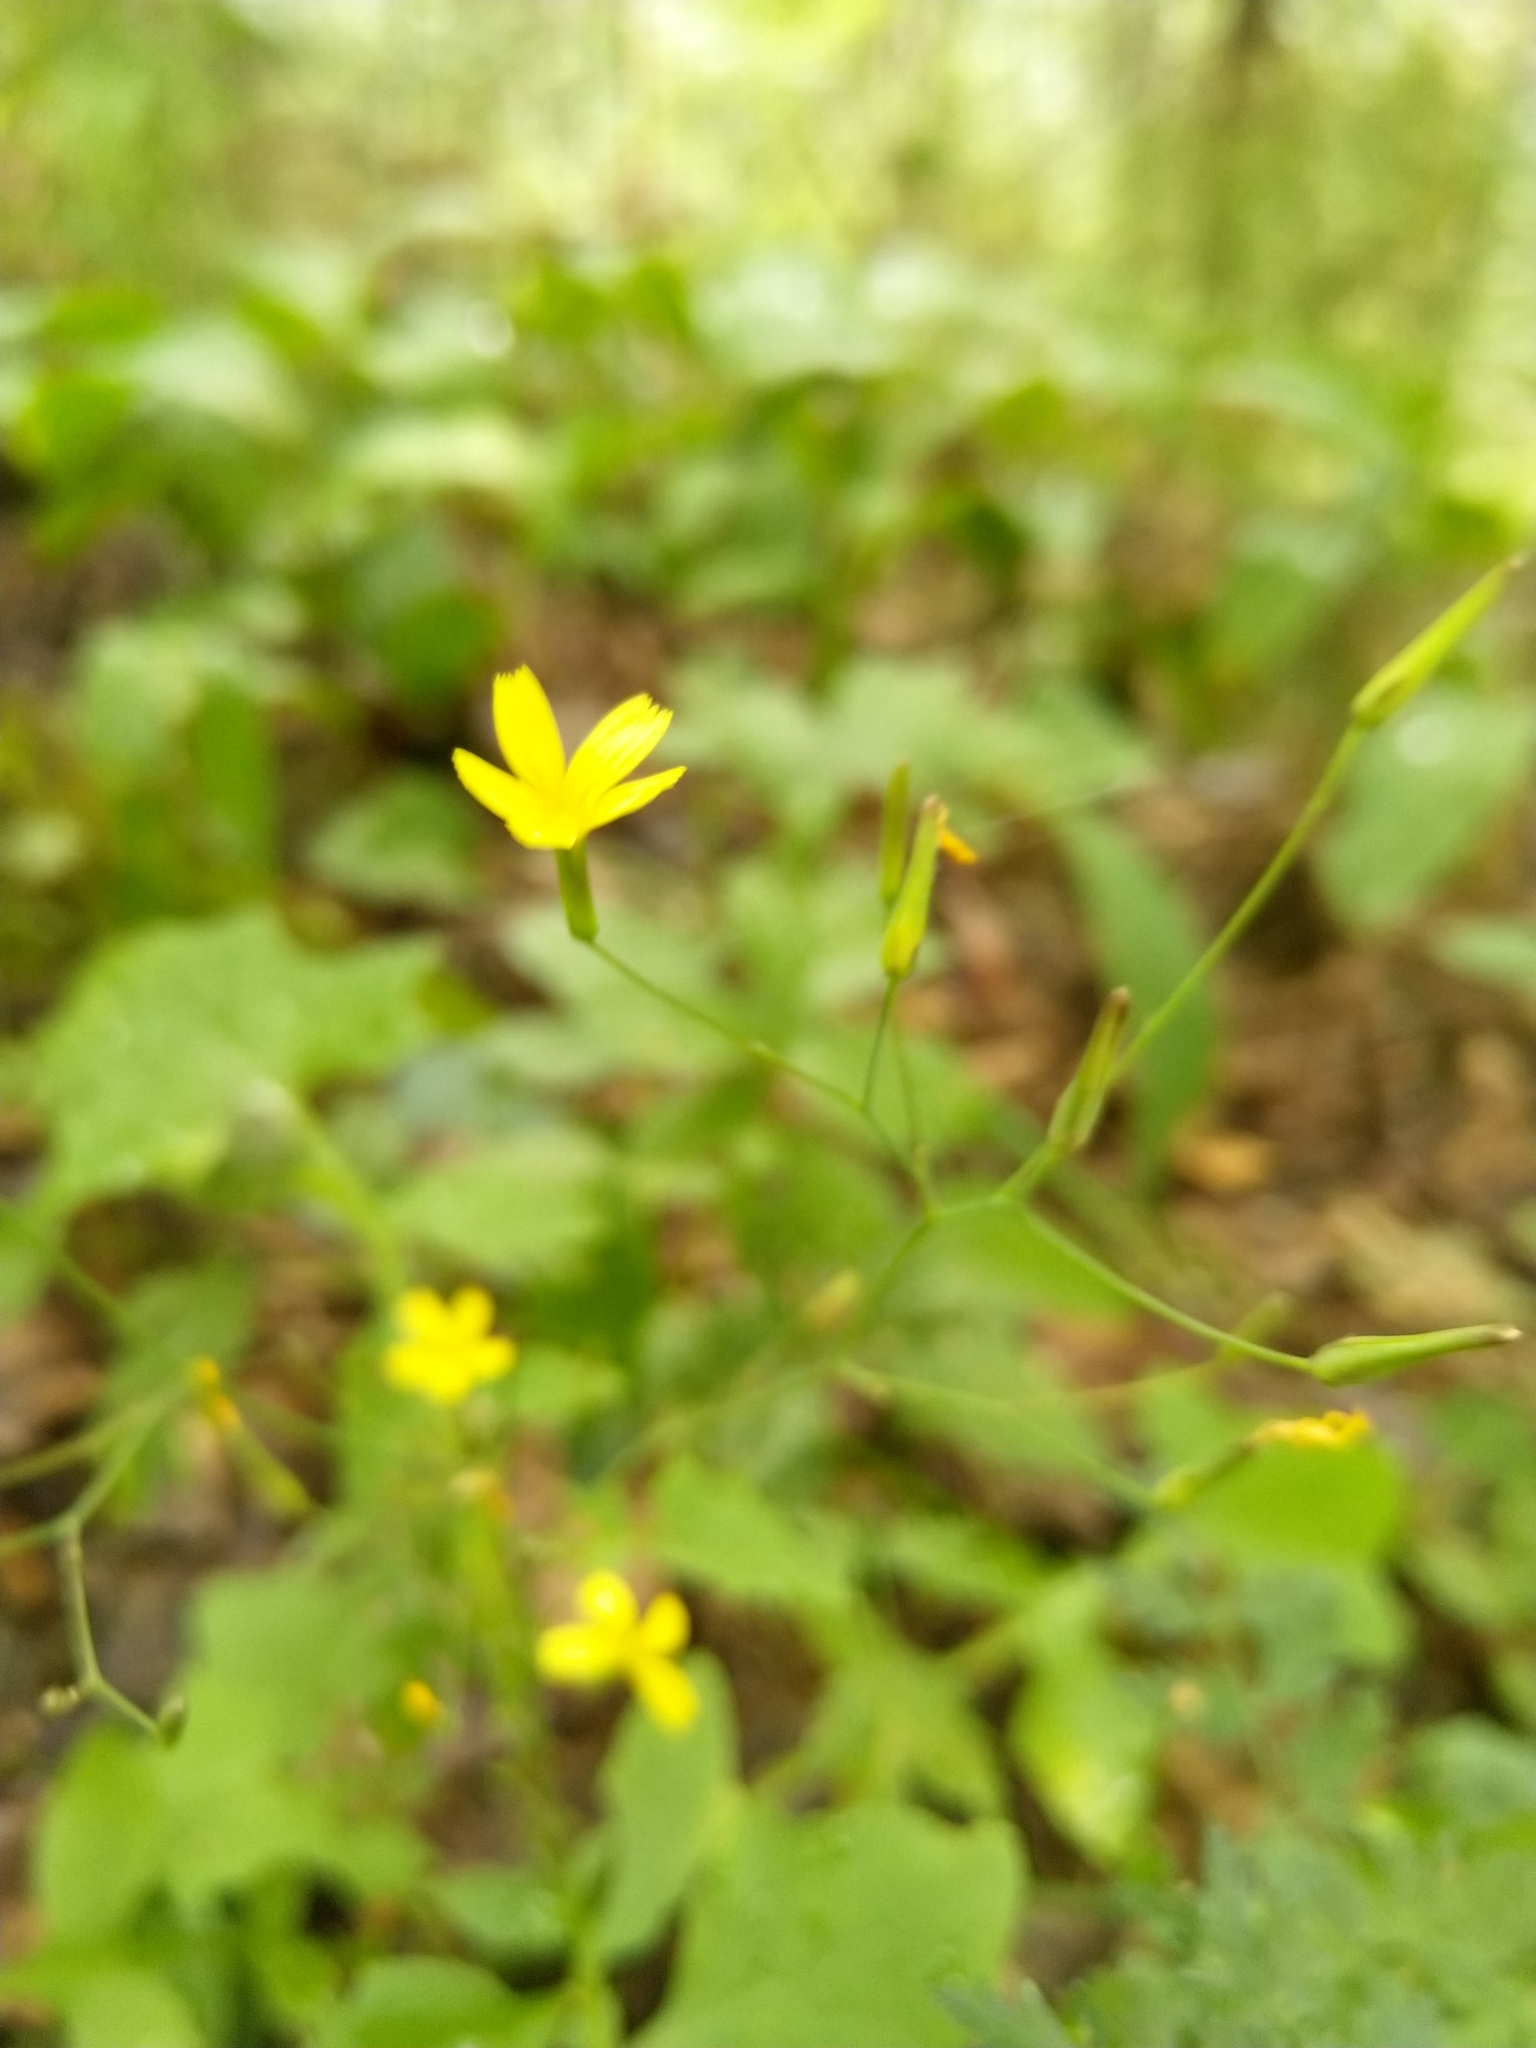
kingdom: Plantae
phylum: Tracheophyta
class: Magnoliopsida
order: Asterales
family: Asteraceae
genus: Mycelis
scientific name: Mycelis muralis
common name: Wall lettuce
